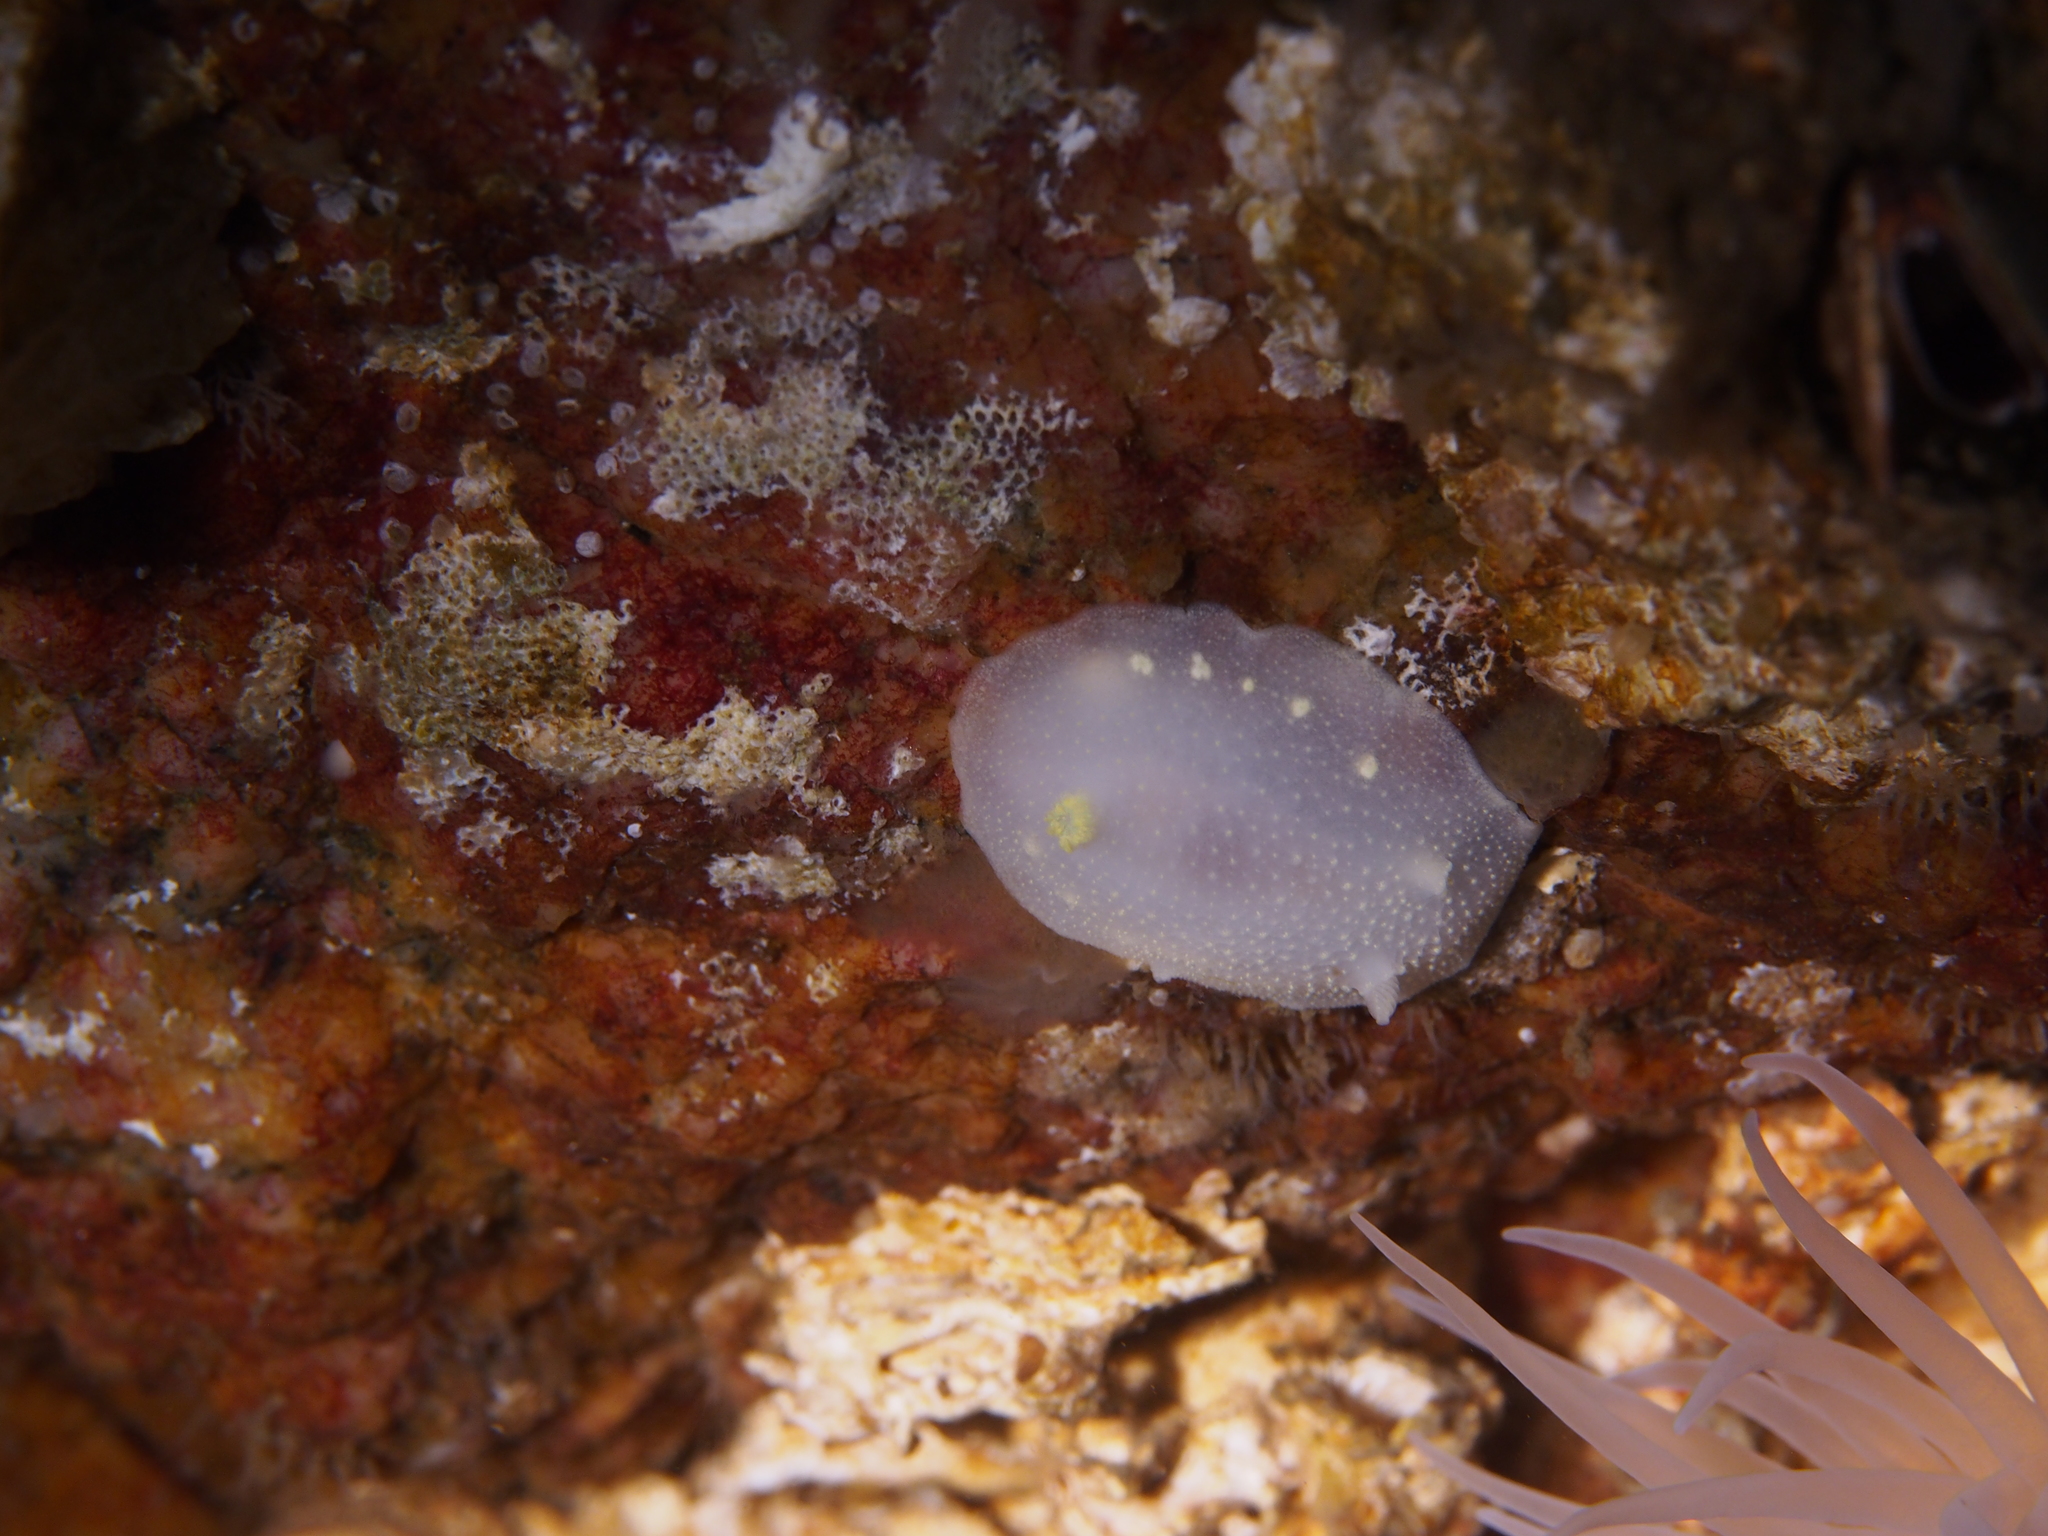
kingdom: Animalia
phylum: Mollusca
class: Gastropoda
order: Nudibranchia
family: Cadlinidae
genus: Cadlina
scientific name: Cadlina laevis
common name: White atlantic cadlina
